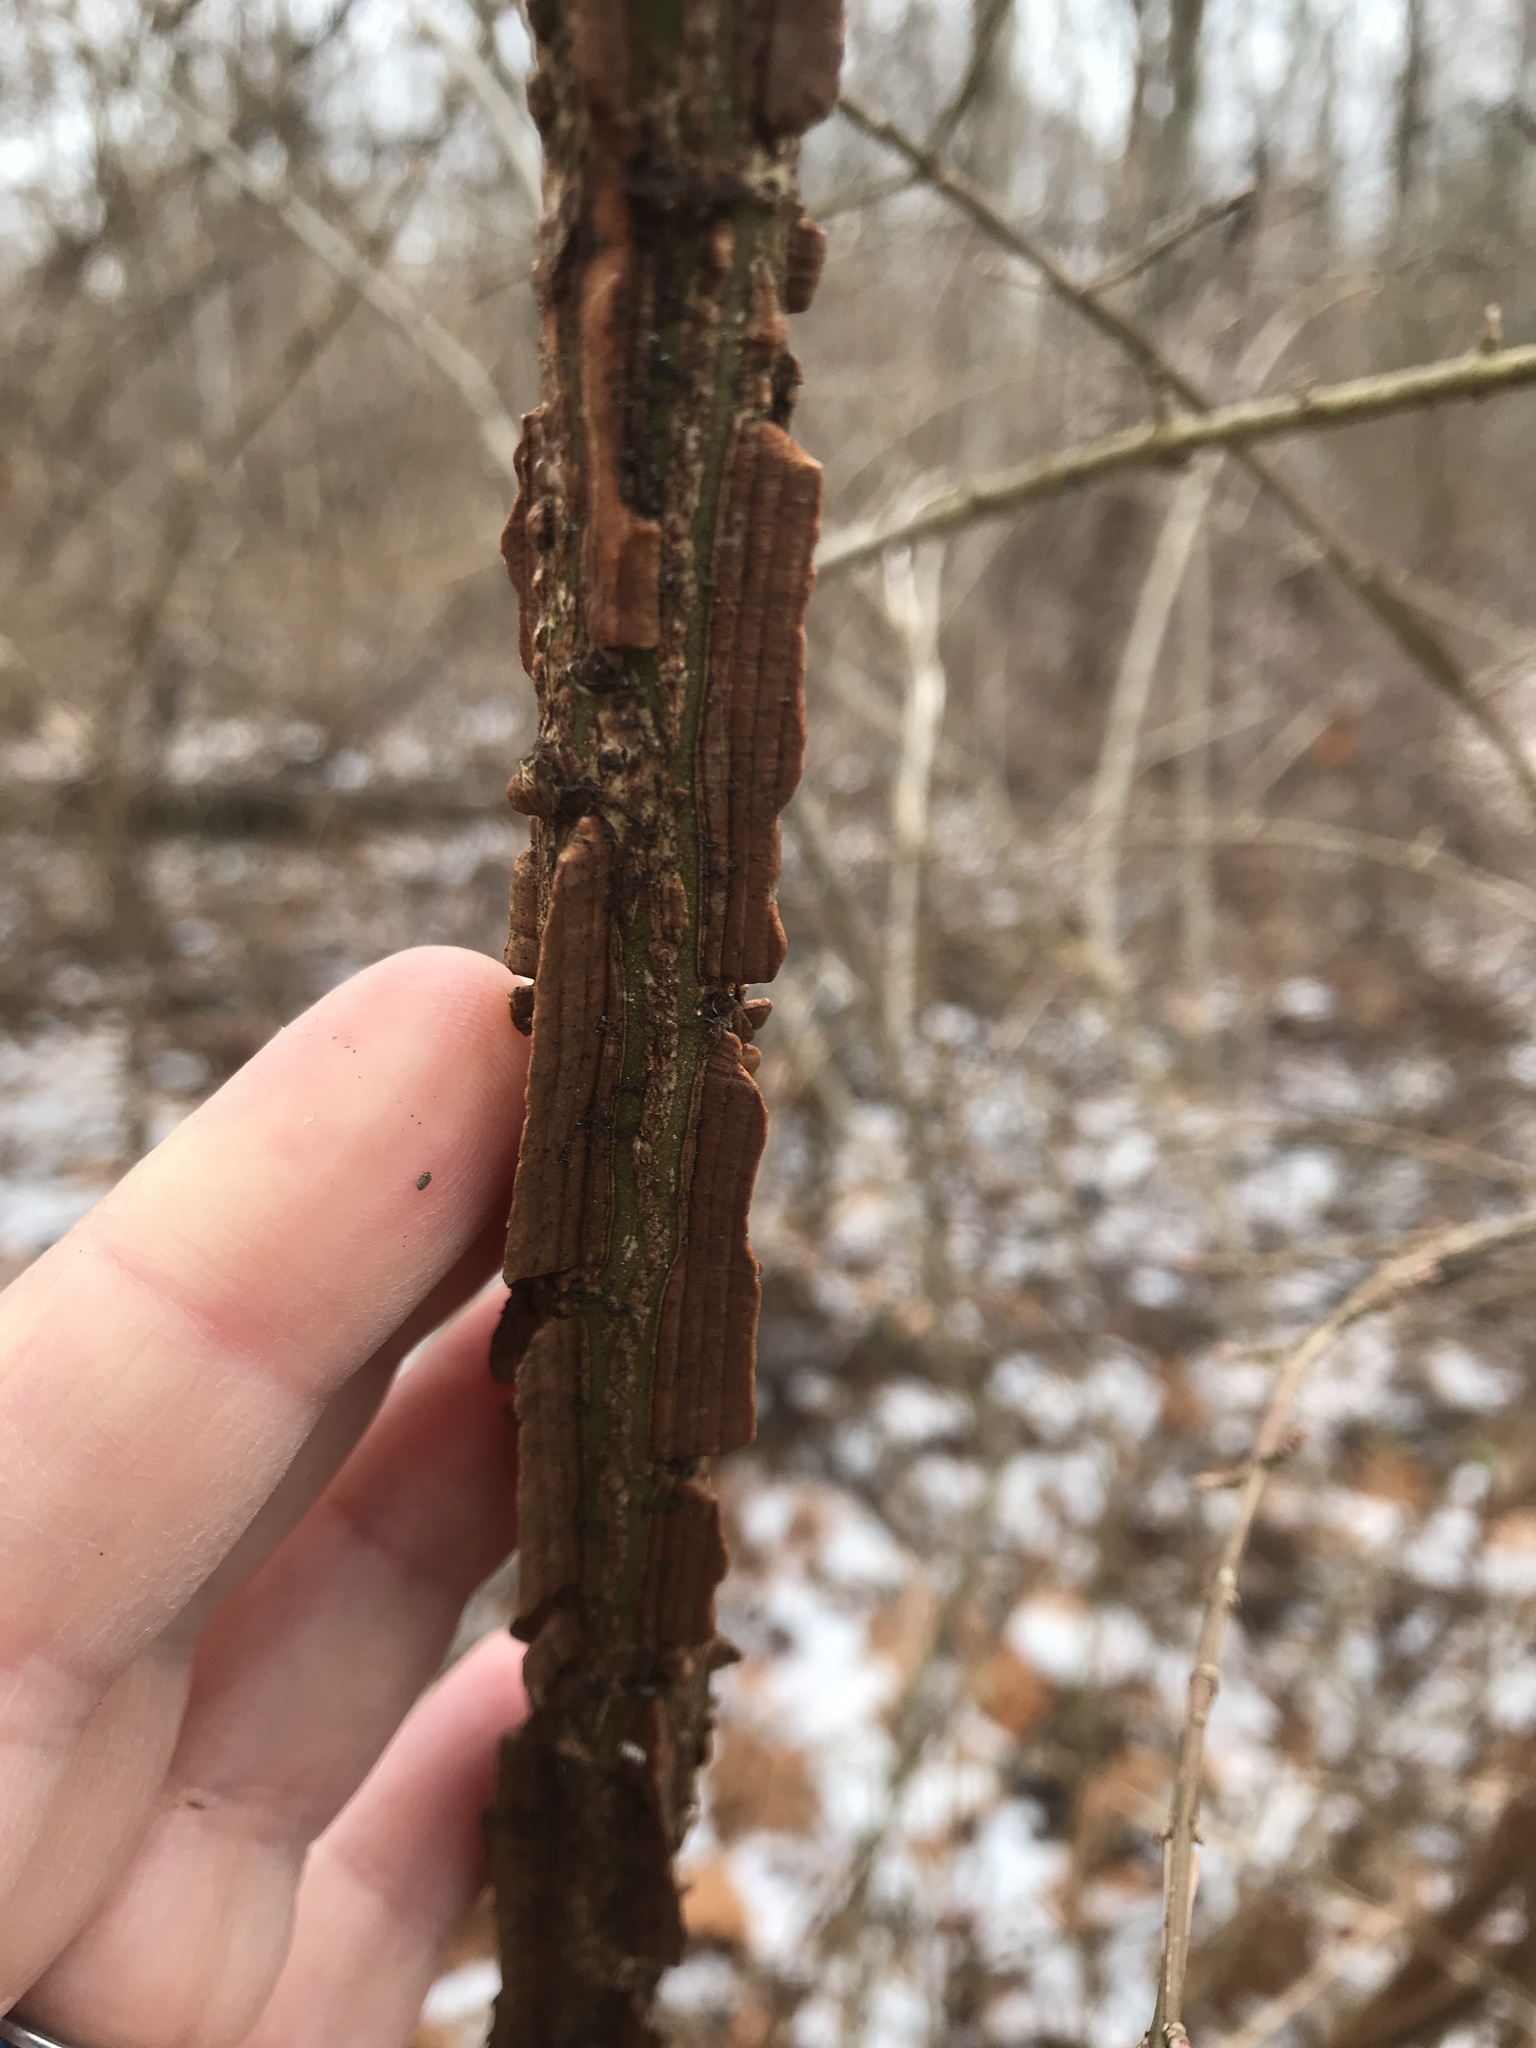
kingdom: Plantae
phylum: Tracheophyta
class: Magnoliopsida
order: Celastrales
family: Celastraceae
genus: Euonymus
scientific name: Euonymus alatus
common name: Winged euonymus
